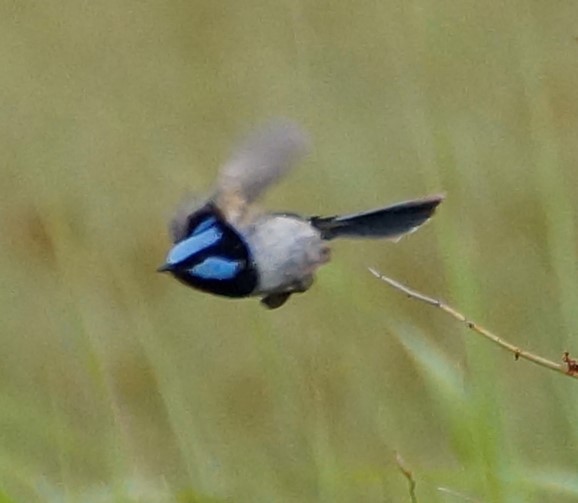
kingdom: Animalia
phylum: Chordata
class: Aves
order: Passeriformes
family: Maluridae
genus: Malurus
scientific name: Malurus cyaneus
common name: Superb fairywren
